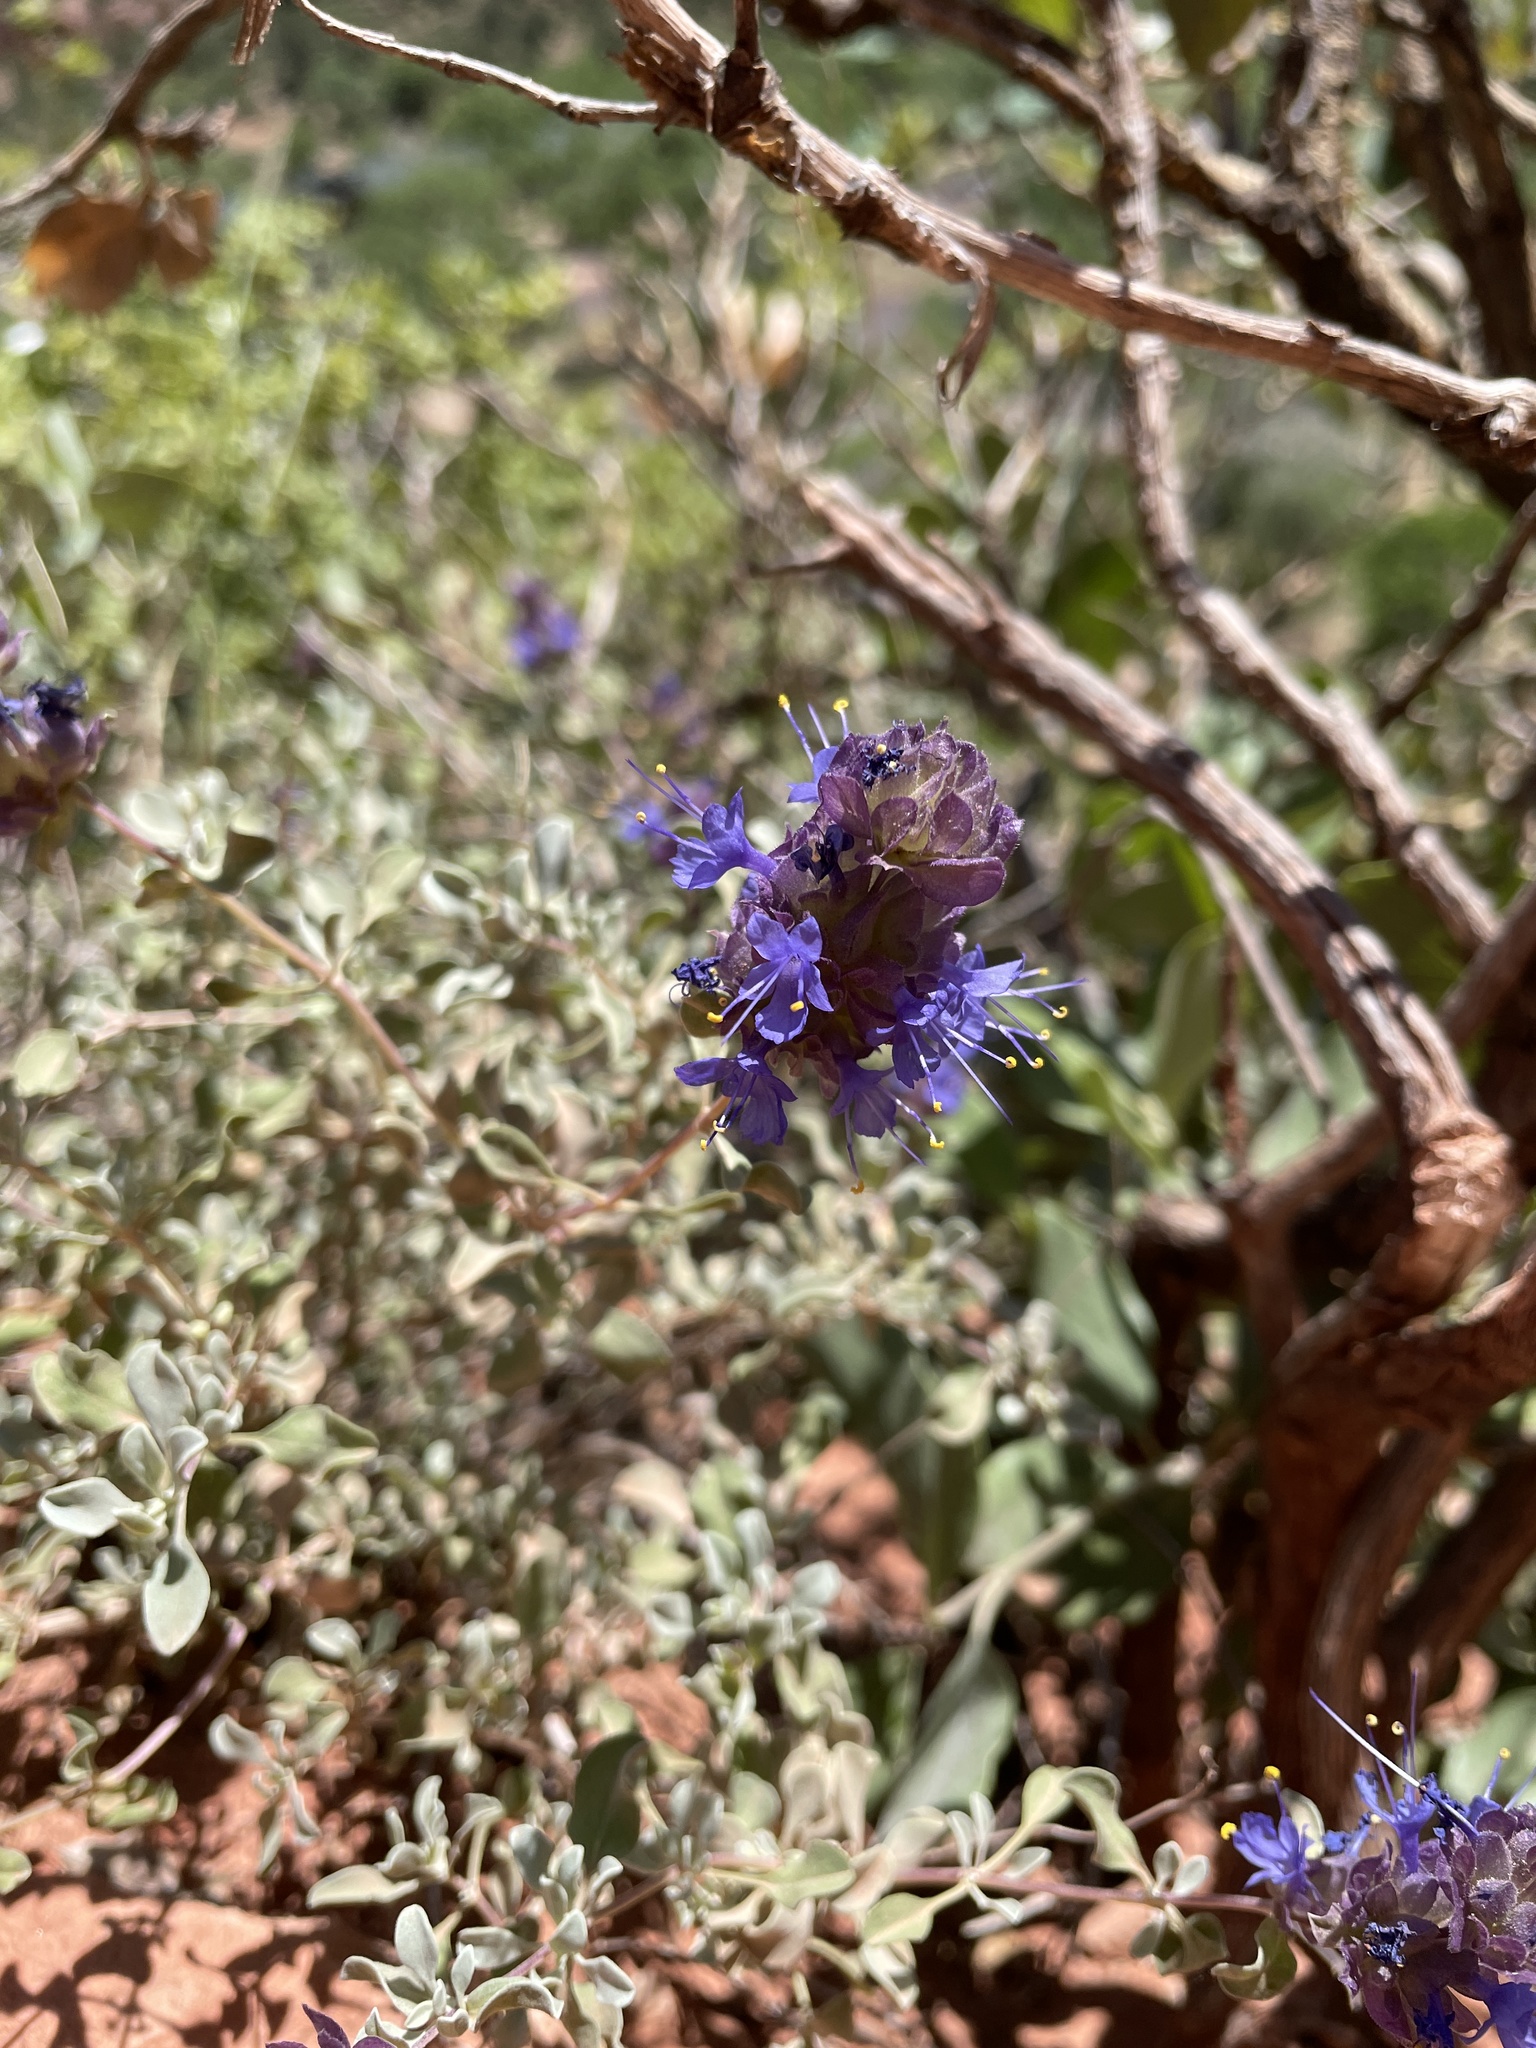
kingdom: Plantae
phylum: Tracheophyta
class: Magnoliopsida
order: Lamiales
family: Lamiaceae
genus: Salvia
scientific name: Salvia dorrii
